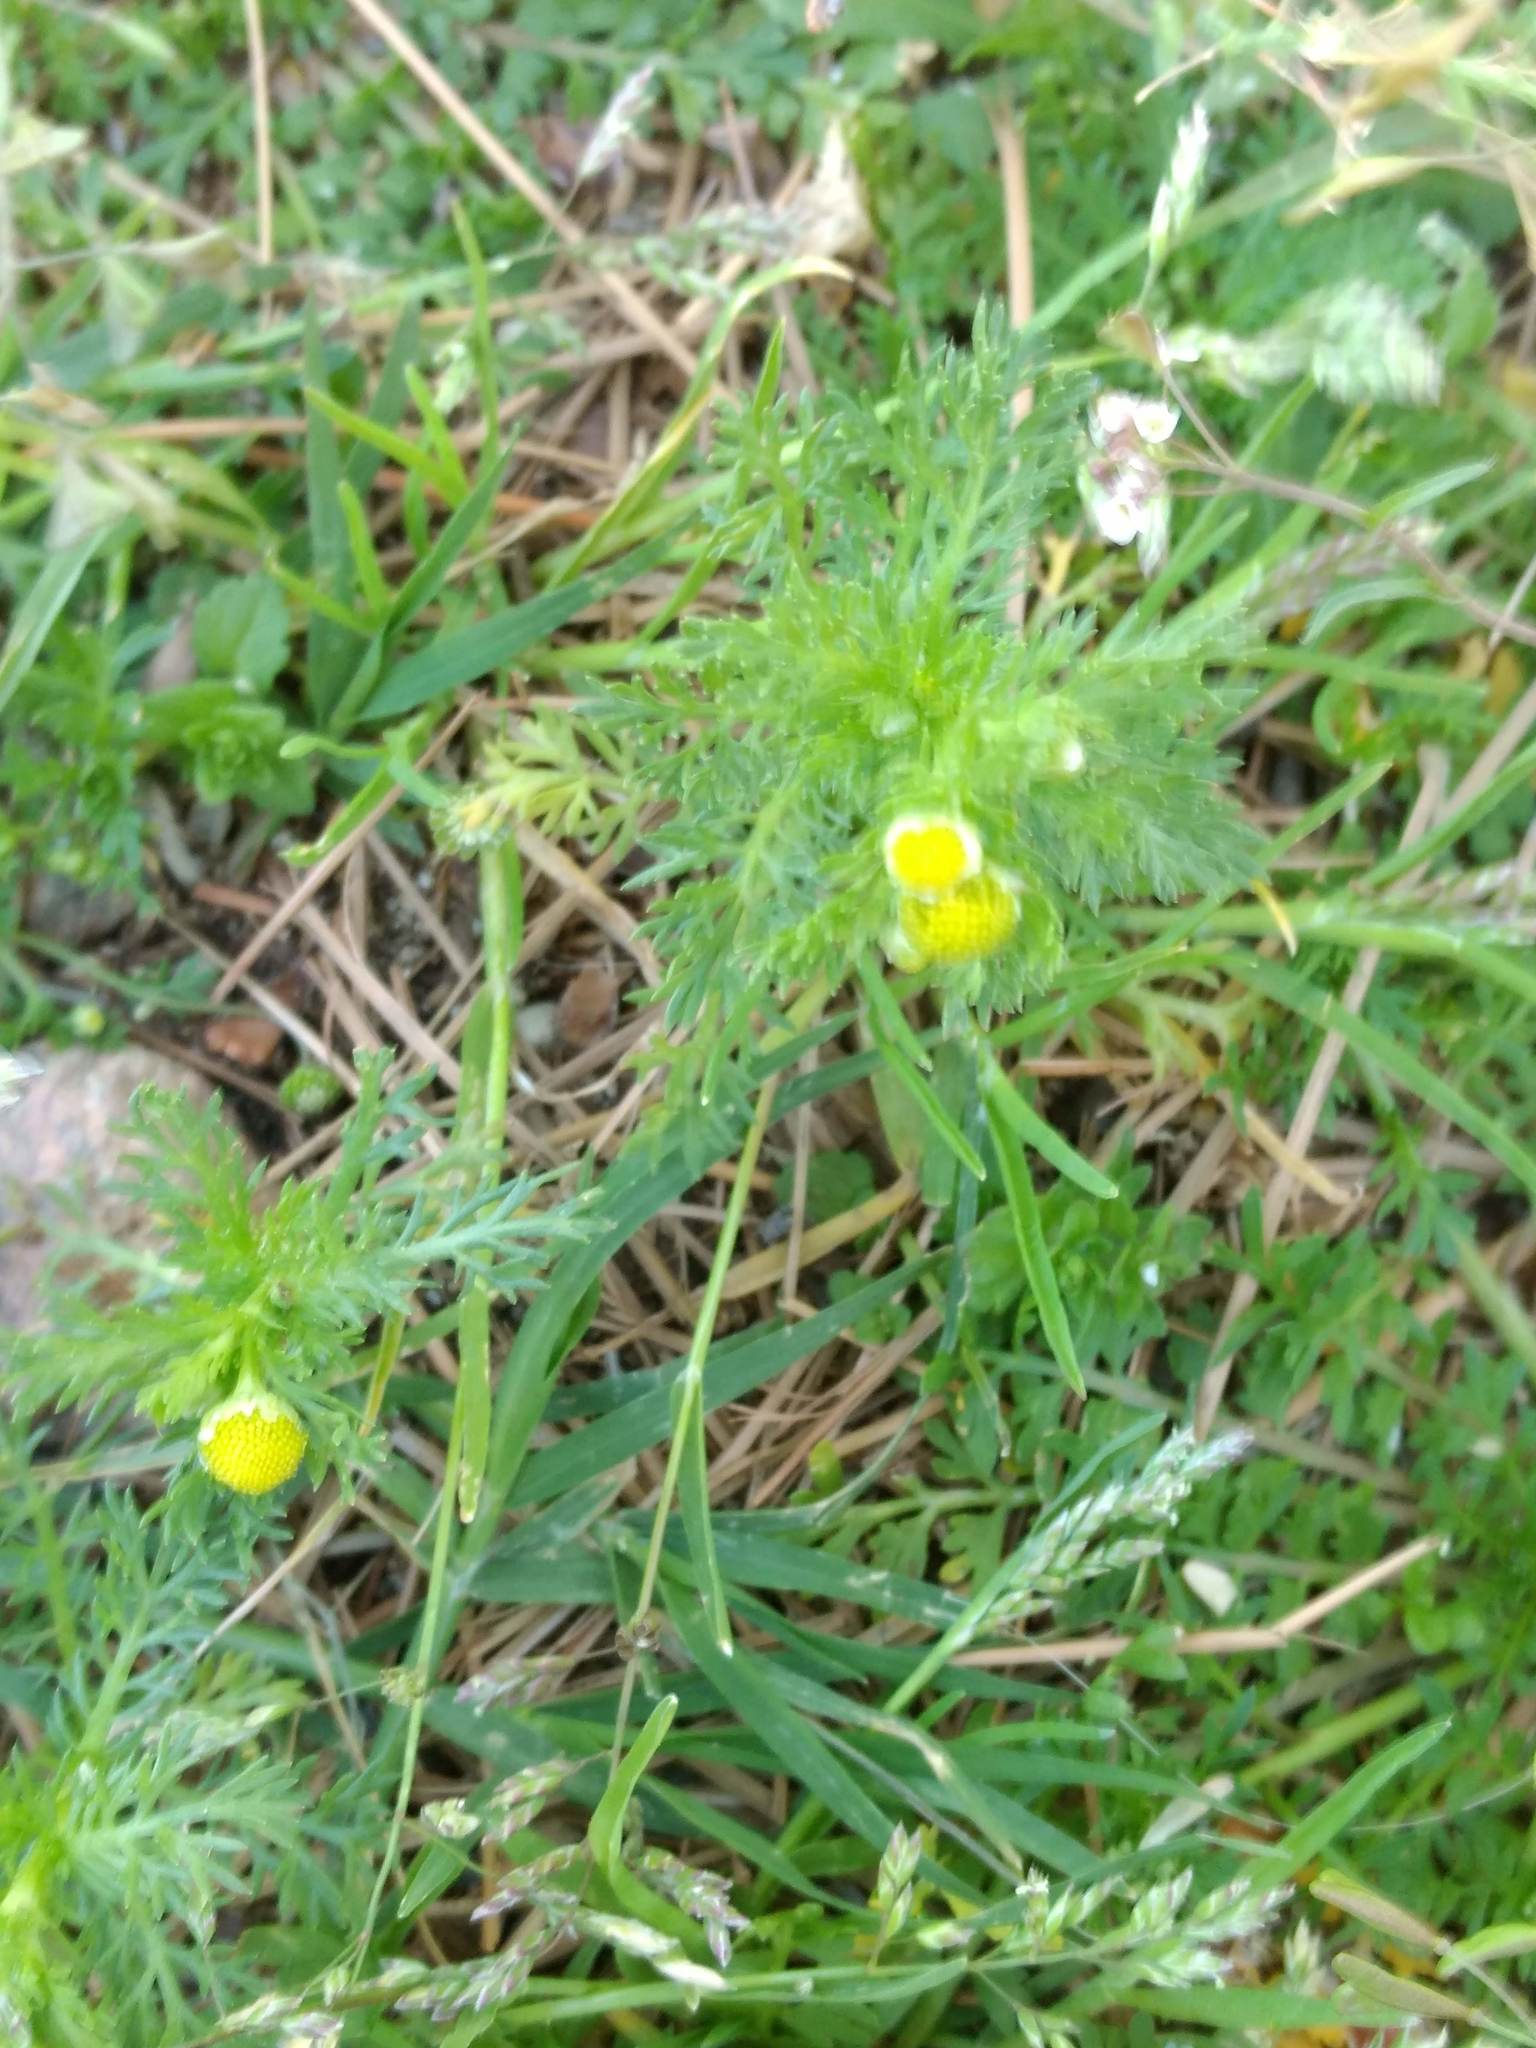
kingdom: Plantae
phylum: Tracheophyta
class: Magnoliopsida
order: Asterales
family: Asteraceae
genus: Matricaria
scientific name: Matricaria discoidea
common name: Disc mayweed
